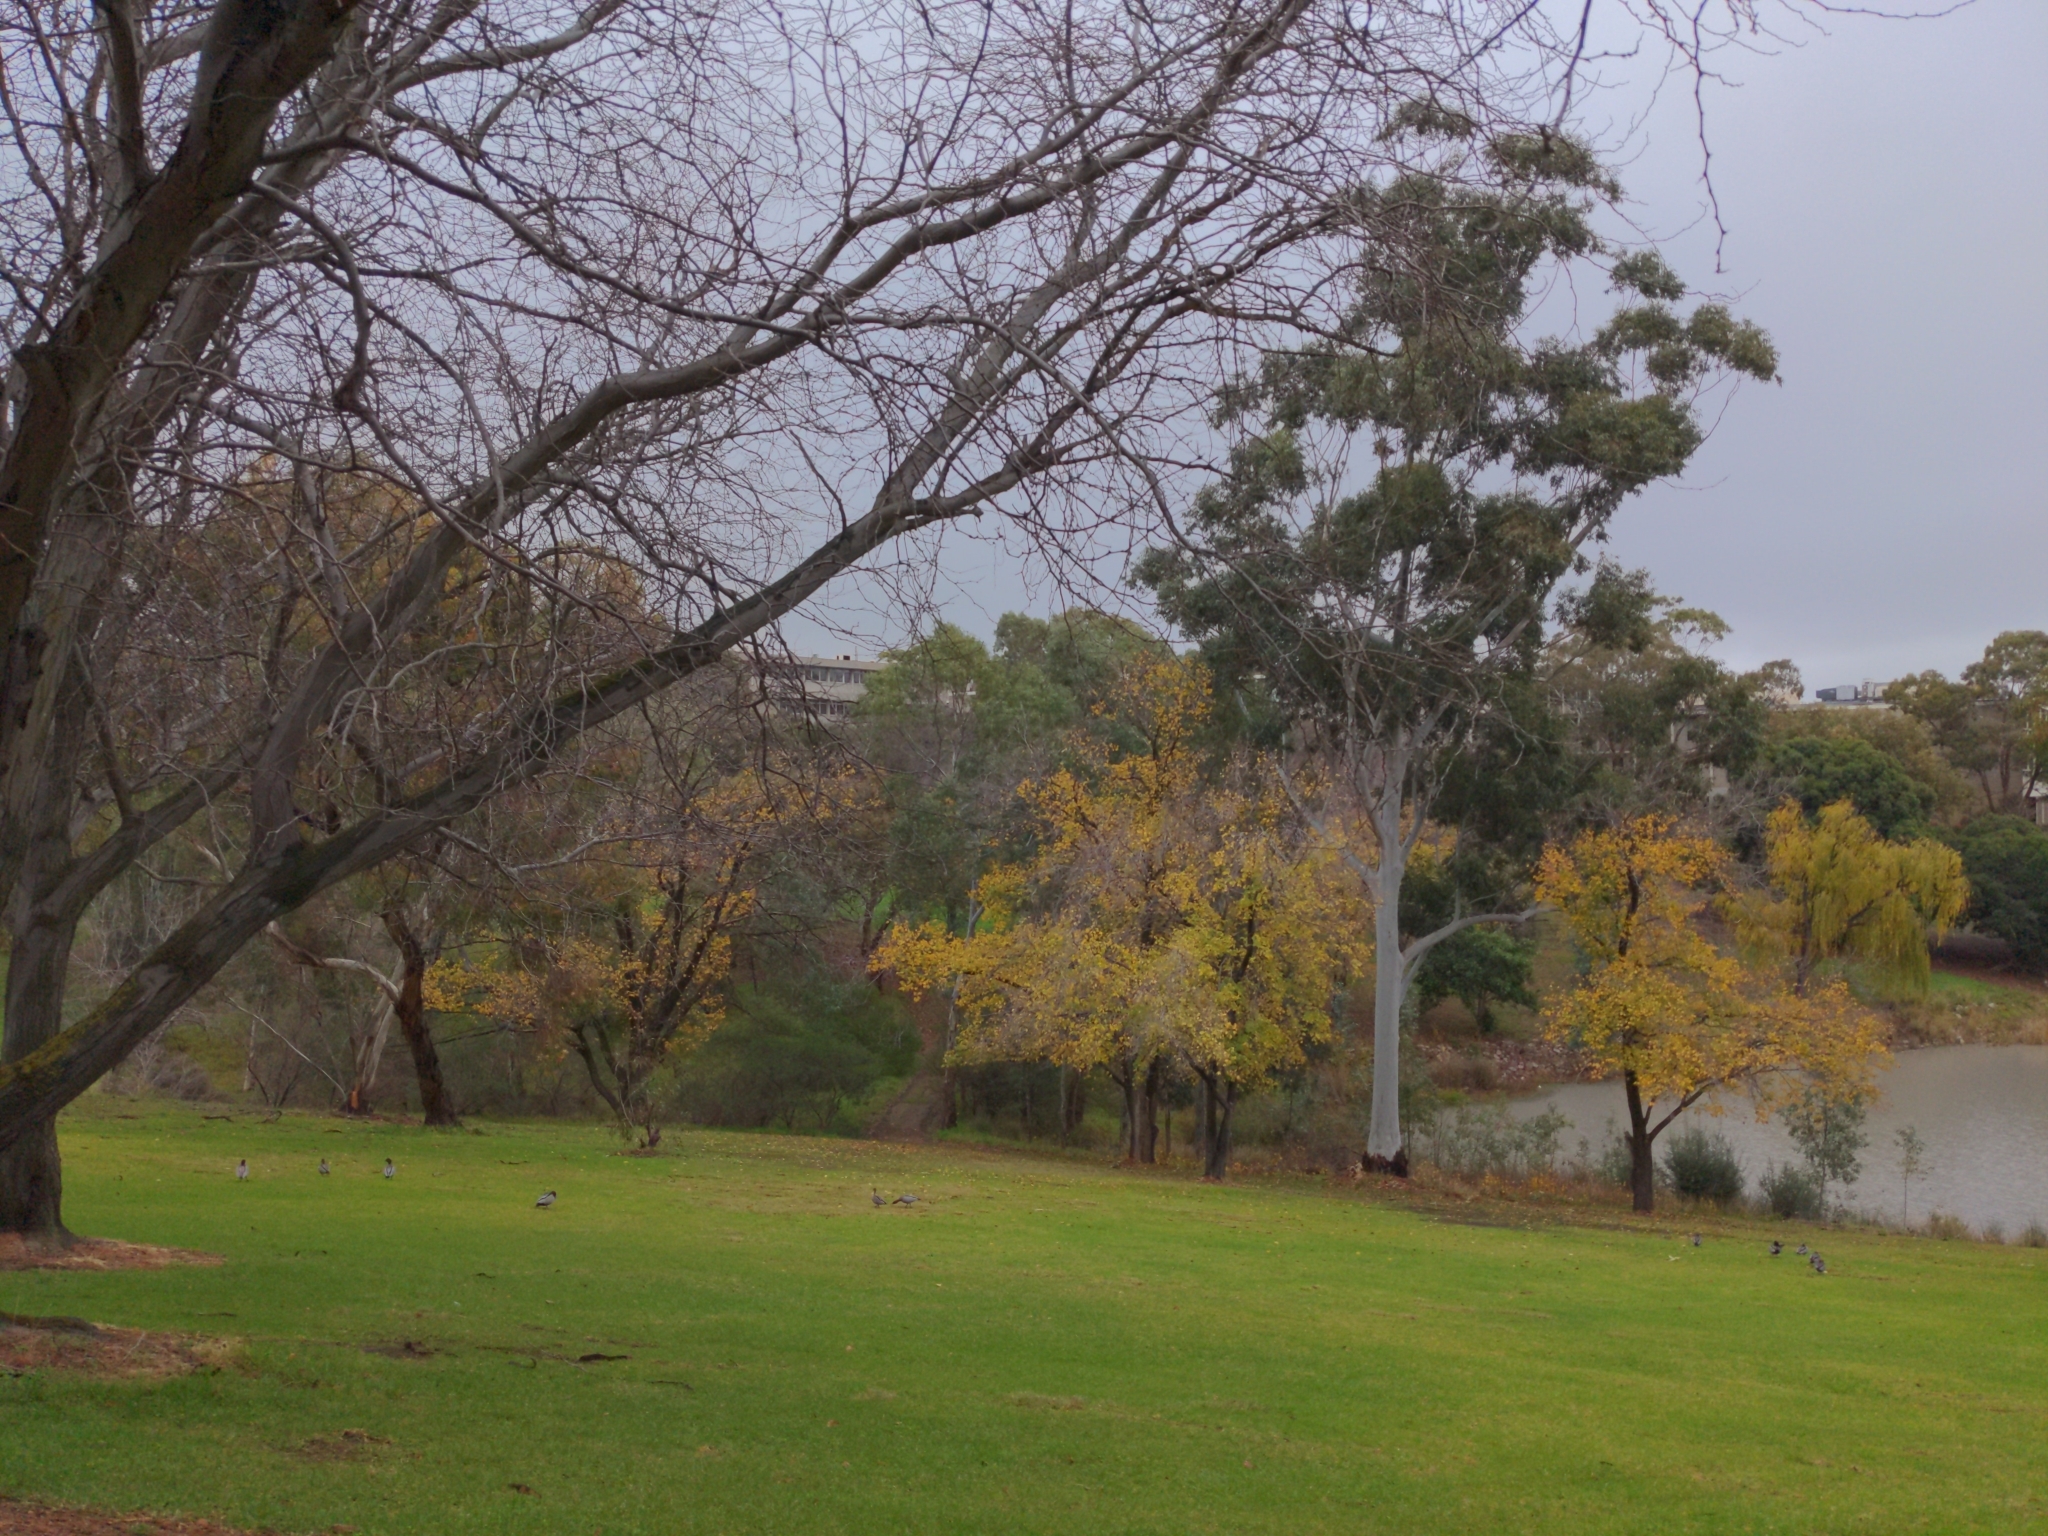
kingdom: Animalia
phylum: Chordata
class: Aves
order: Anseriformes
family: Anatidae
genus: Chenonetta
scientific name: Chenonetta jubata
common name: Maned duck
